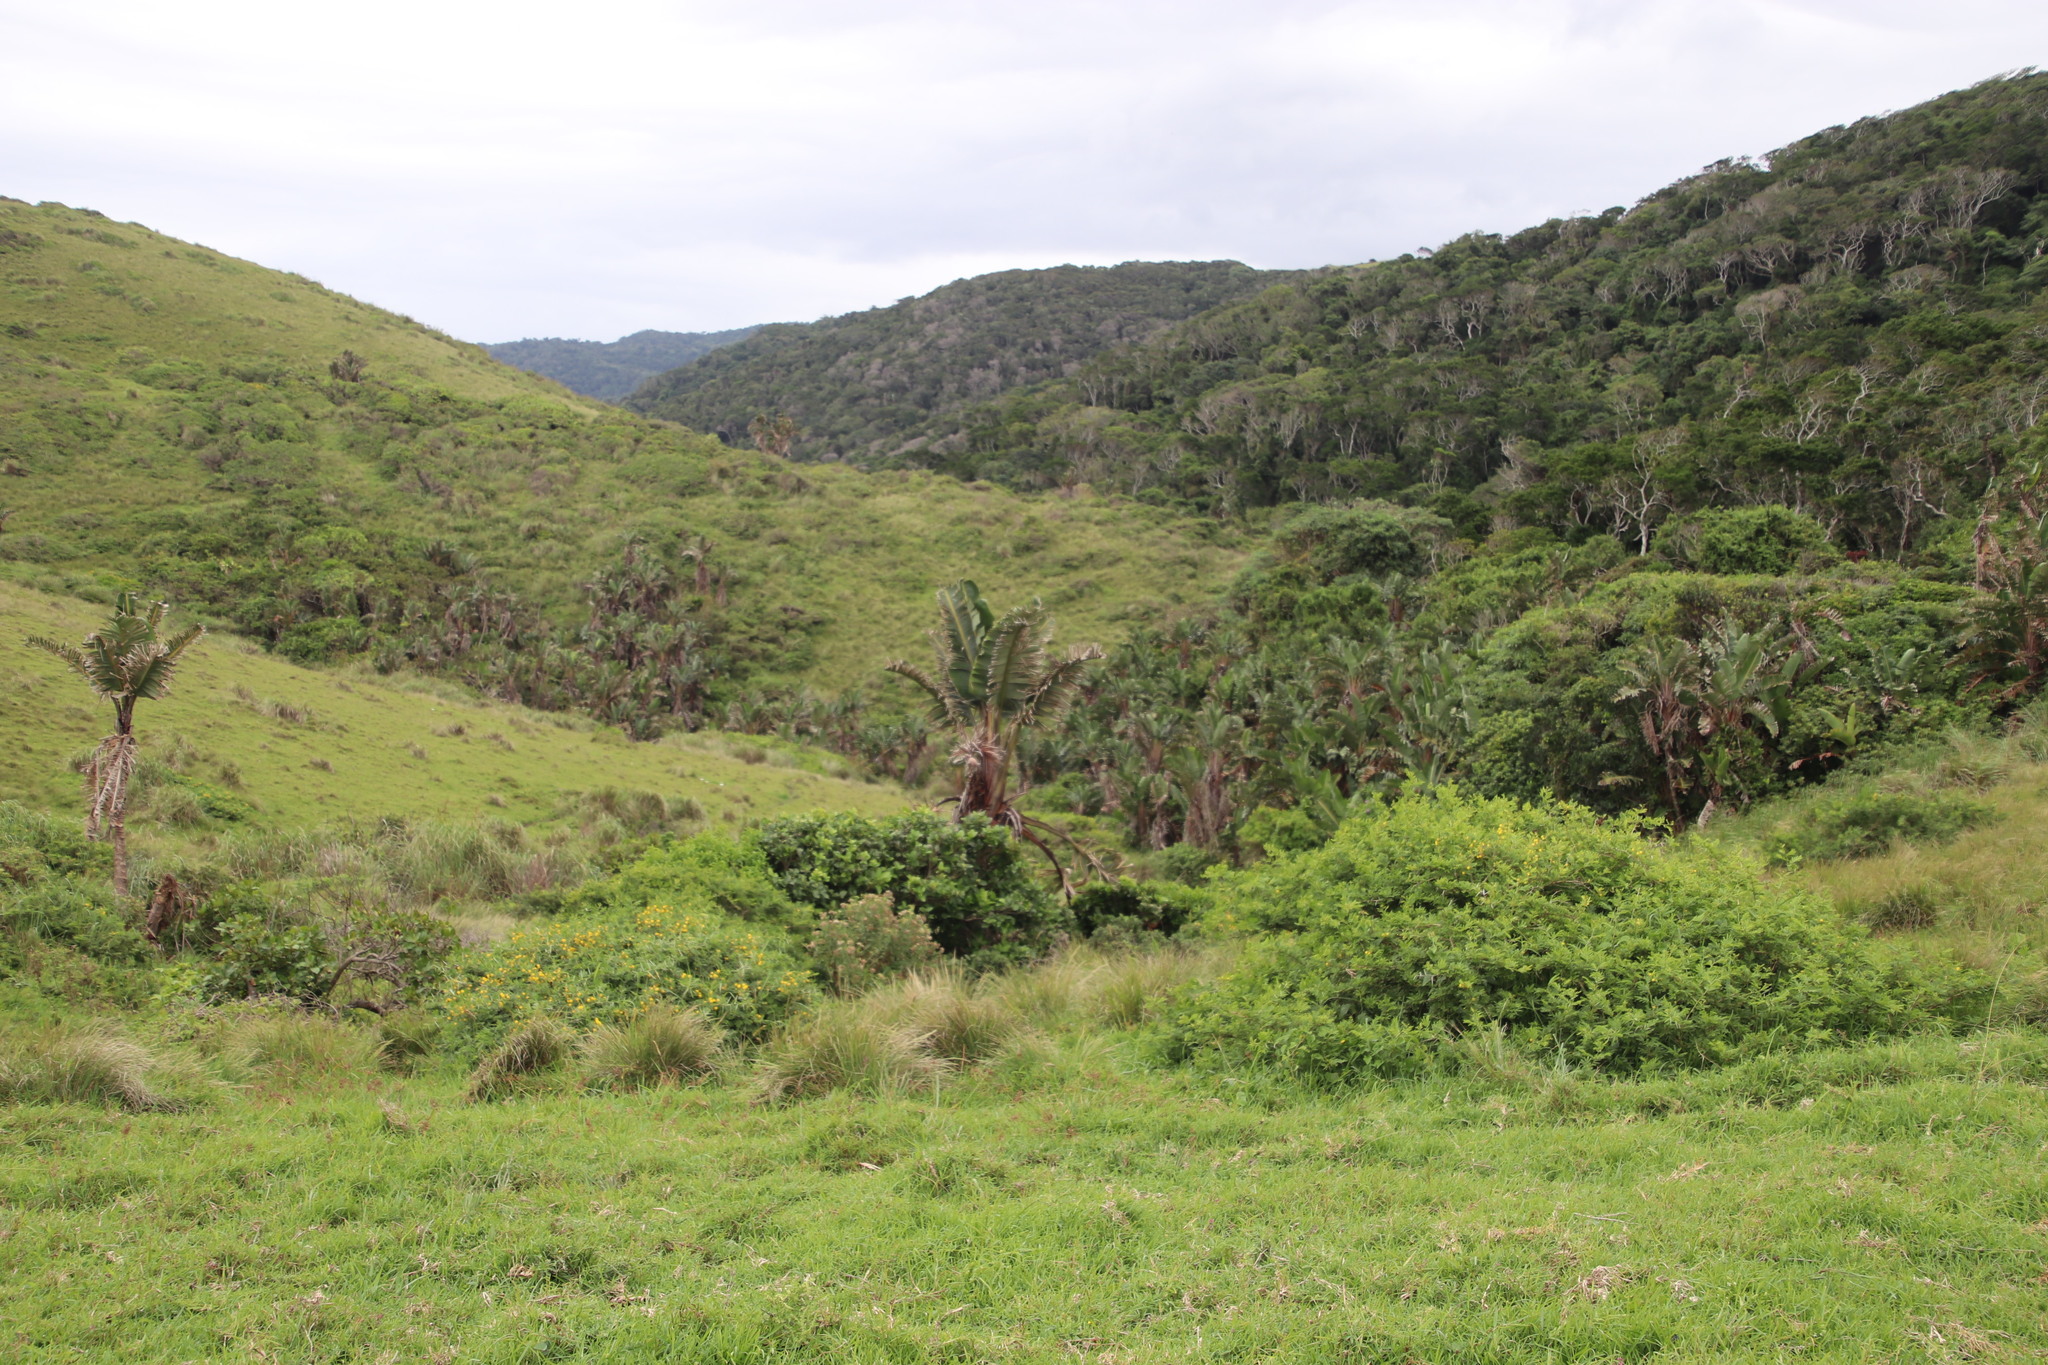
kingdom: Plantae
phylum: Tracheophyta
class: Liliopsida
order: Zingiberales
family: Strelitziaceae
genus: Strelitzia
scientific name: Strelitzia nicolai
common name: Bird-of-paradise tree
